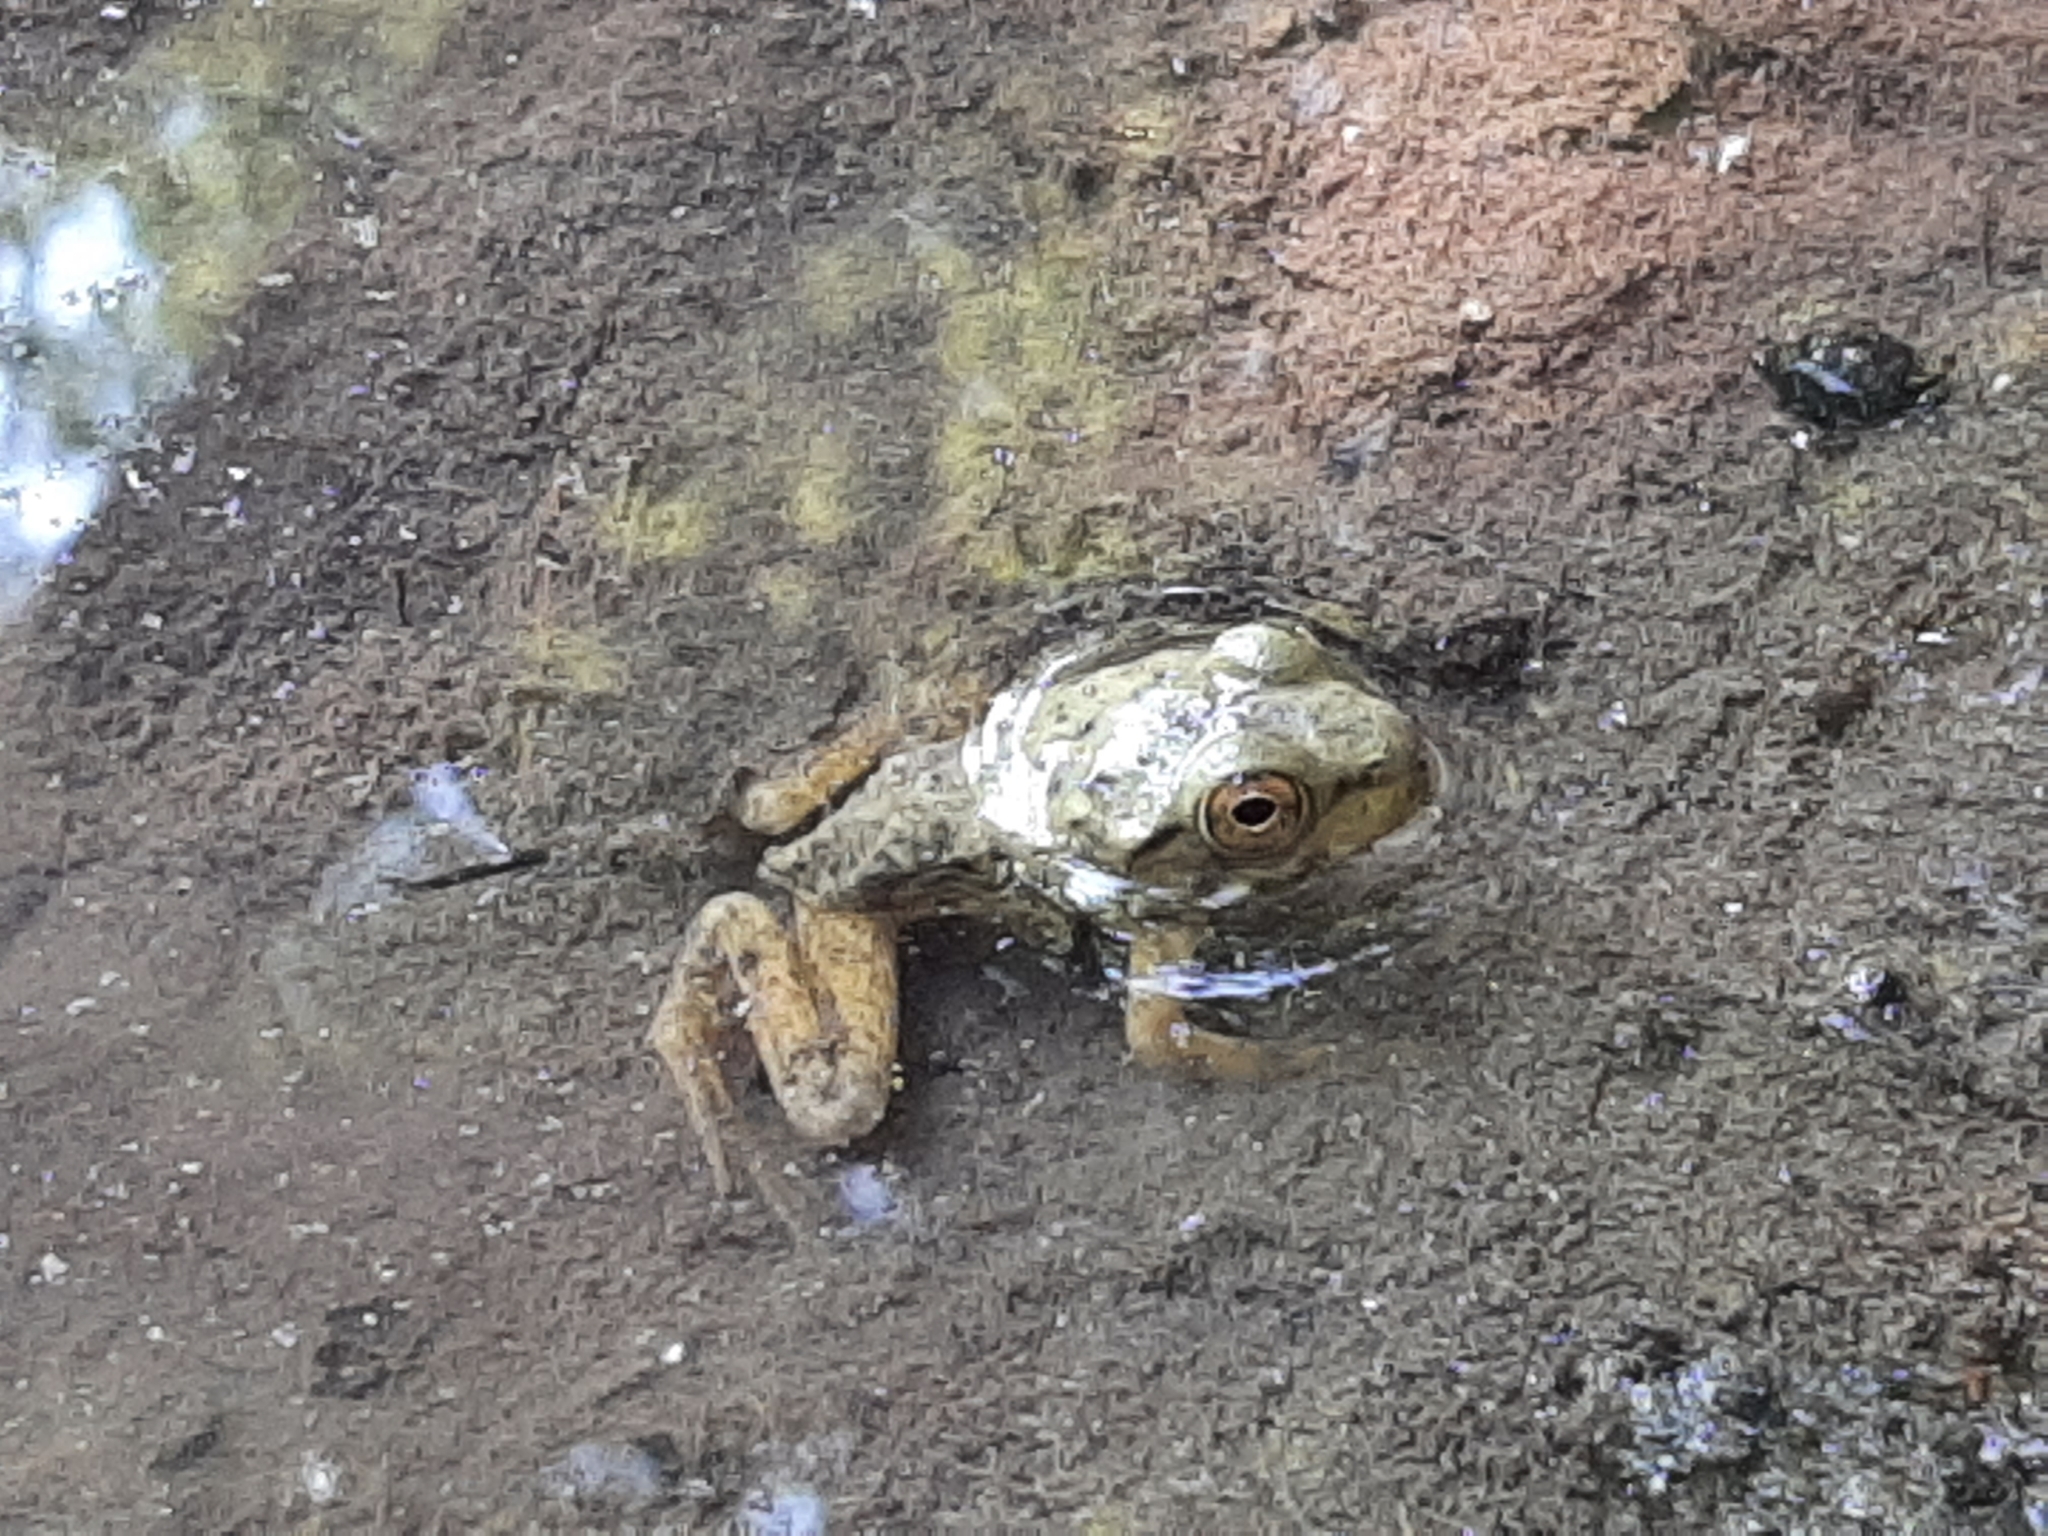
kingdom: Animalia
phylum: Chordata
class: Amphibia
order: Anura
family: Ranidae
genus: Lithobates
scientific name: Lithobates catesbeianus
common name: American bullfrog
